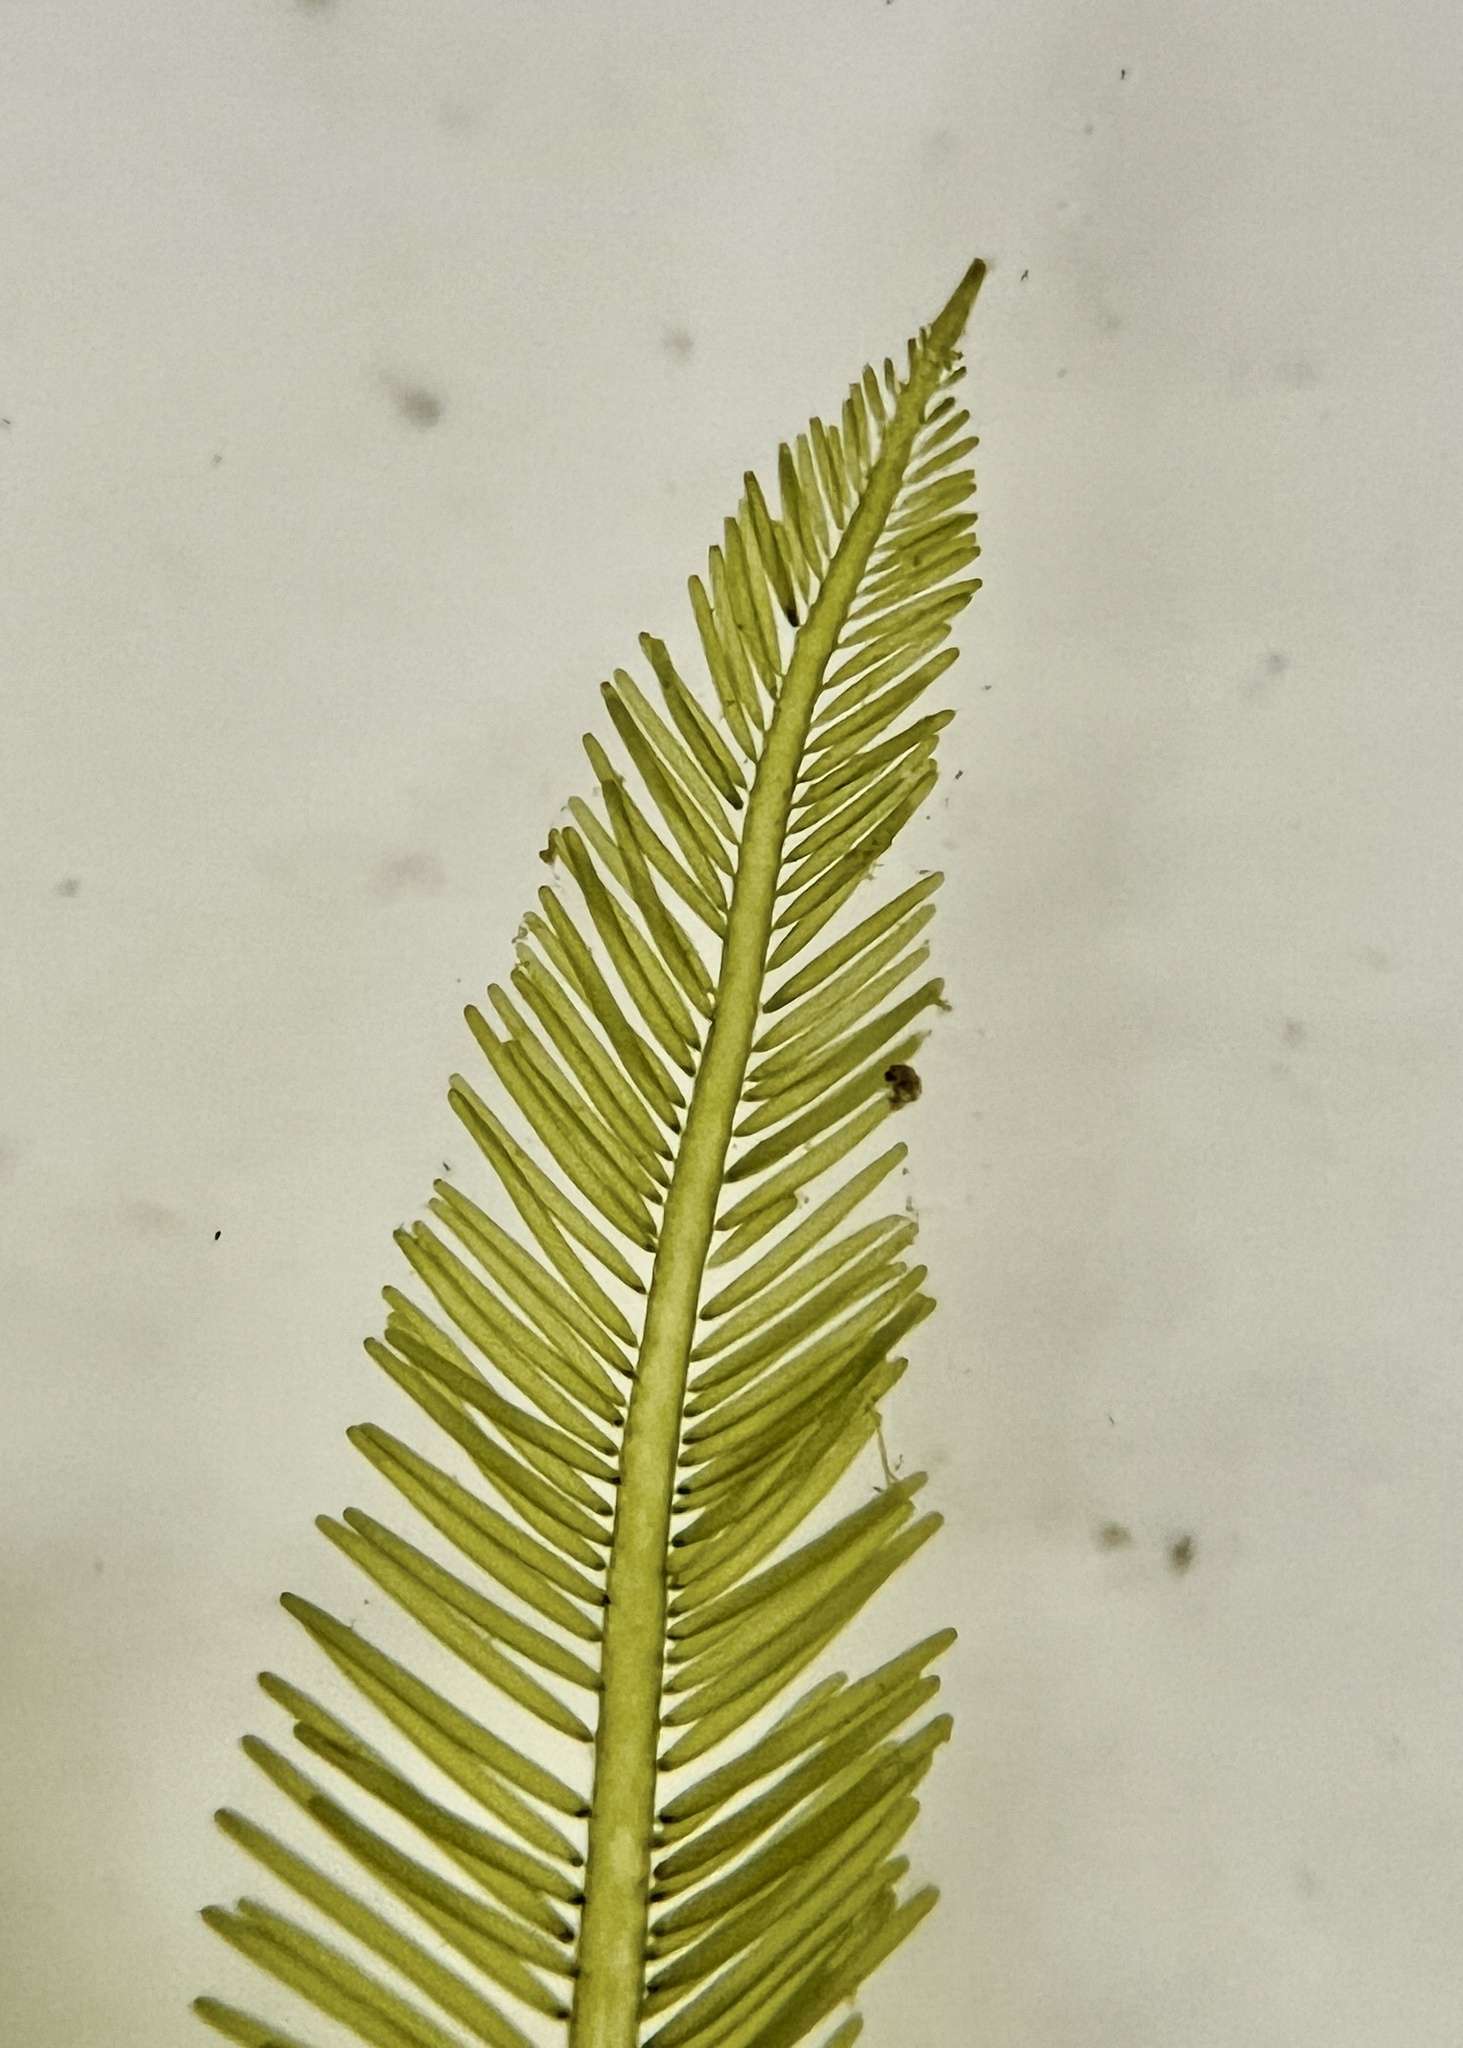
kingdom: Plantae
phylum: Chlorophyta
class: Ulvophyceae
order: Bryopsidales
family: Bryopsidaceae
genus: Bryopsis
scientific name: Bryopsis plumosa
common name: Hen pen
